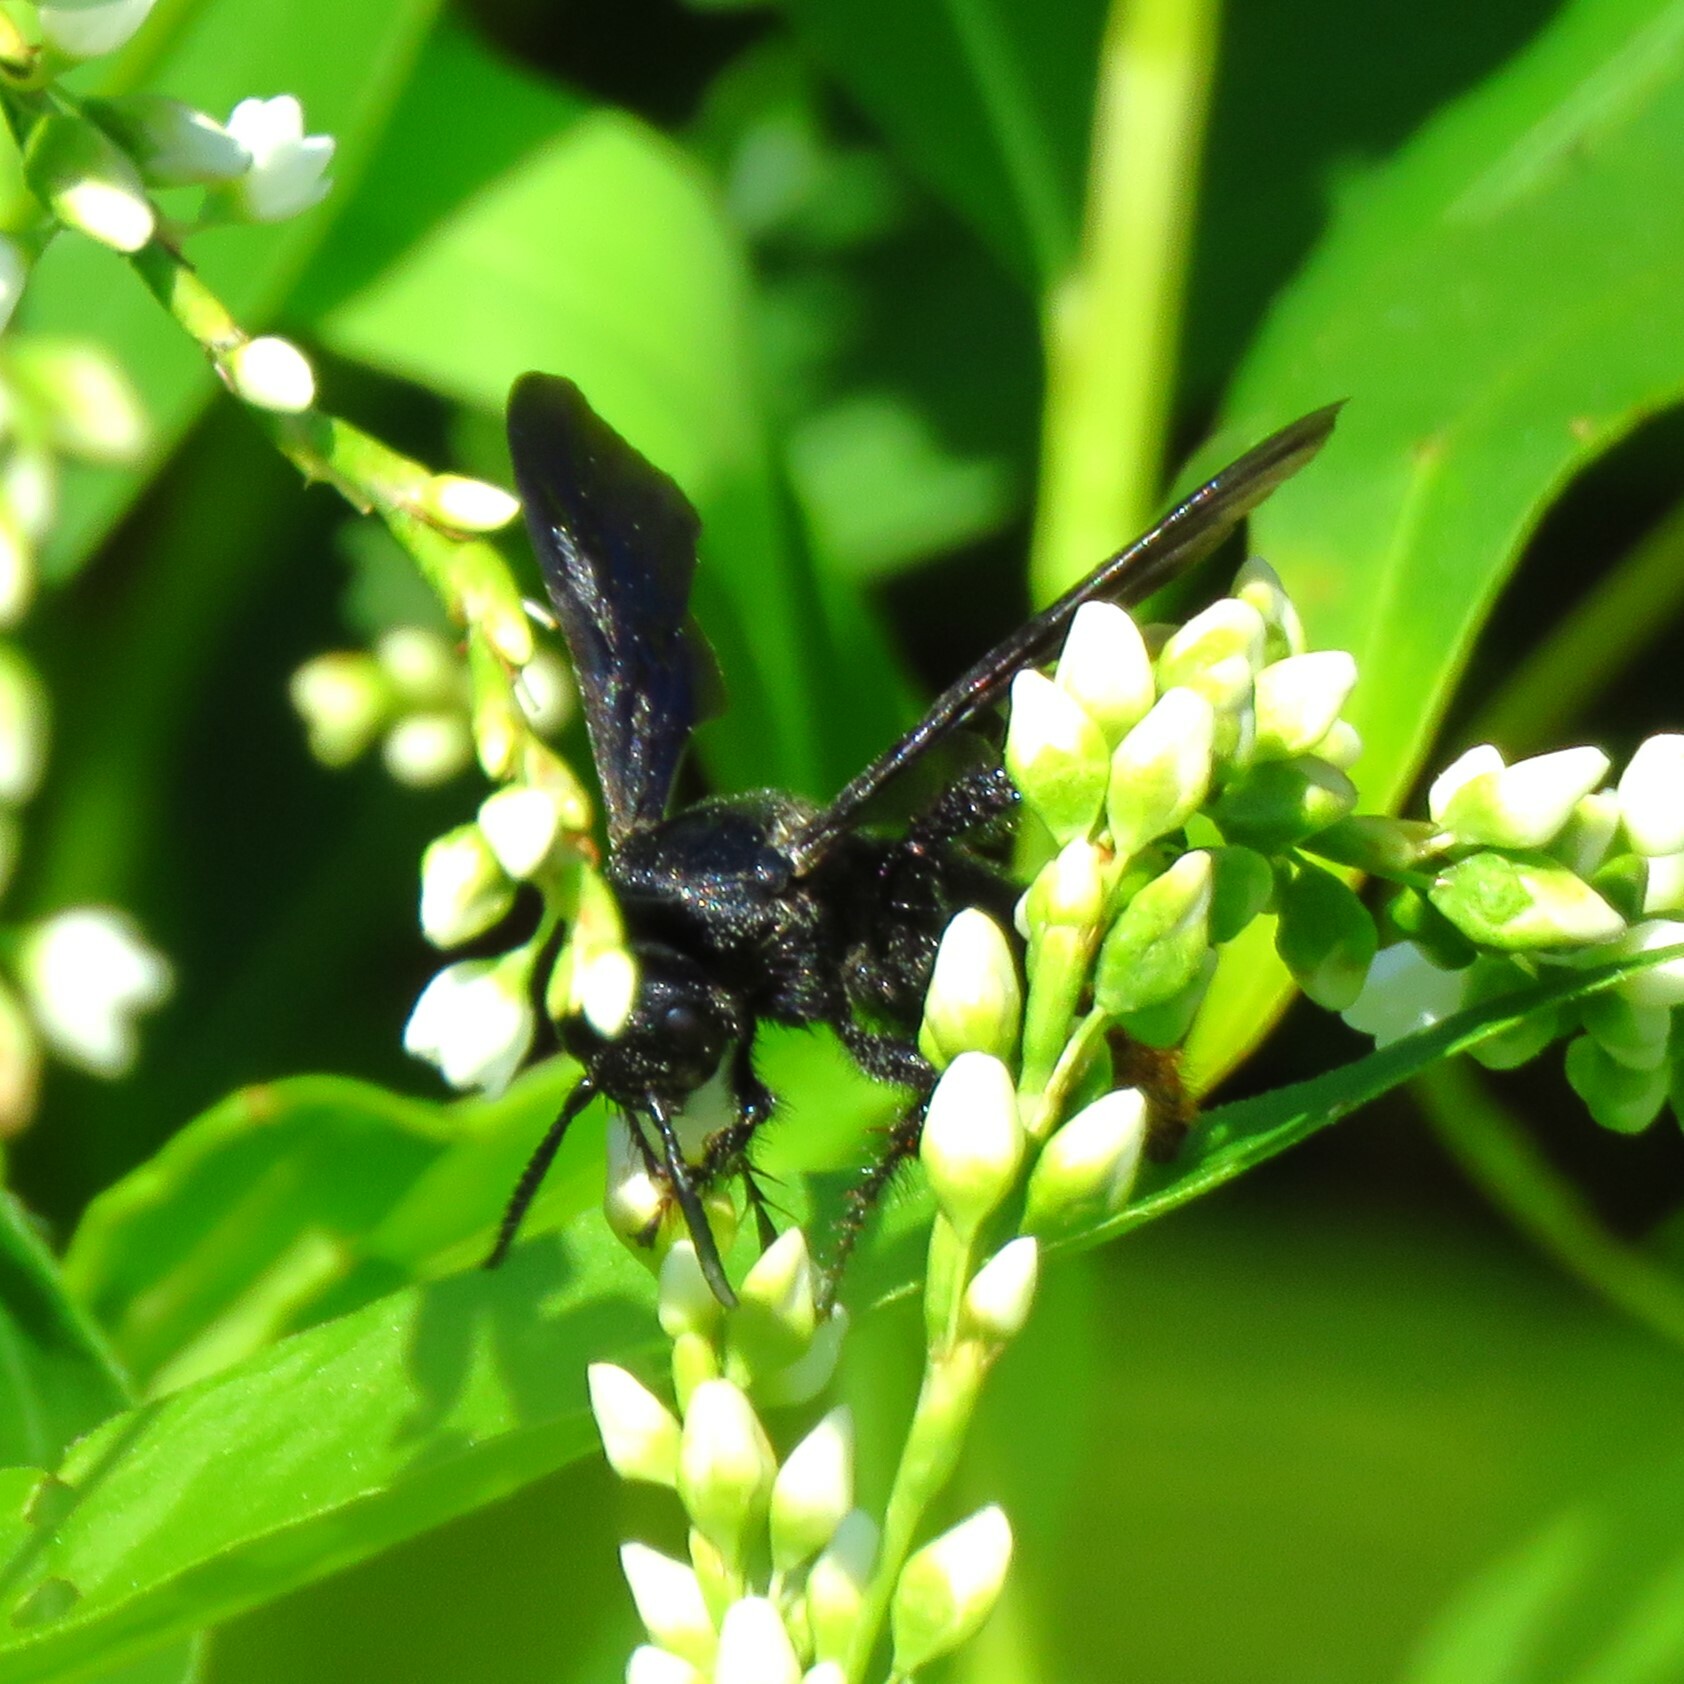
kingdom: Animalia
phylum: Arthropoda
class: Insecta
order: Hymenoptera
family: Scoliidae
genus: Scolia
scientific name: Scolia dubia
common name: Blue-winged scoliid wasp
